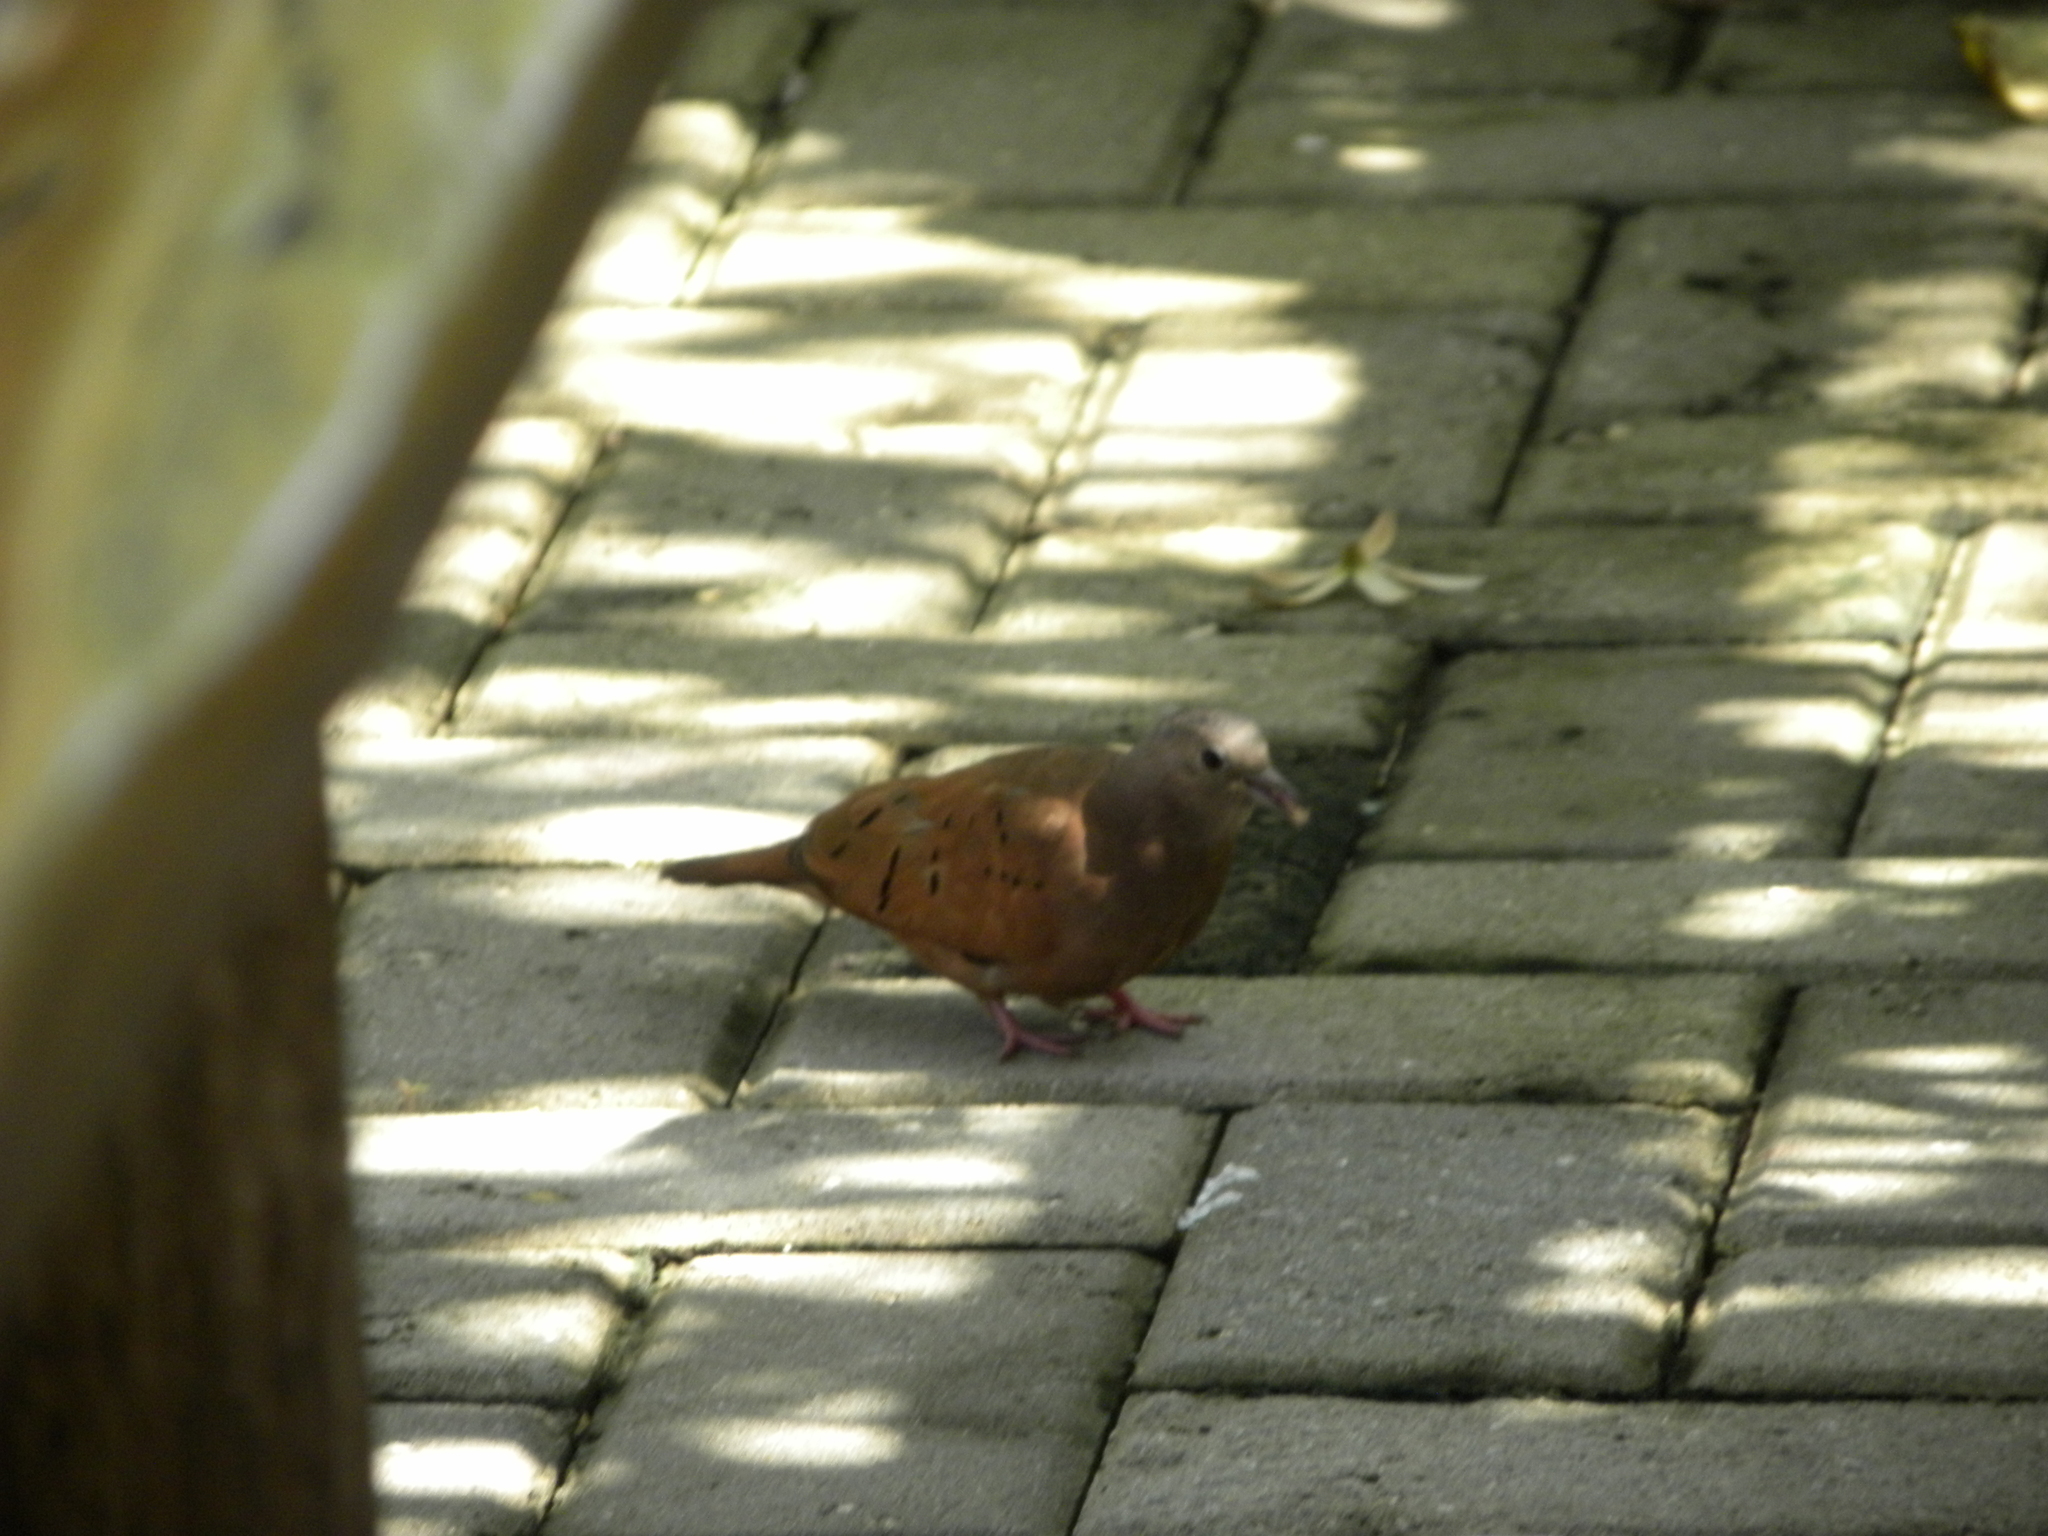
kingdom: Animalia
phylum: Chordata
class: Aves
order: Columbiformes
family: Columbidae
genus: Columbina
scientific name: Columbina talpacoti
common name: Ruddy ground dove
